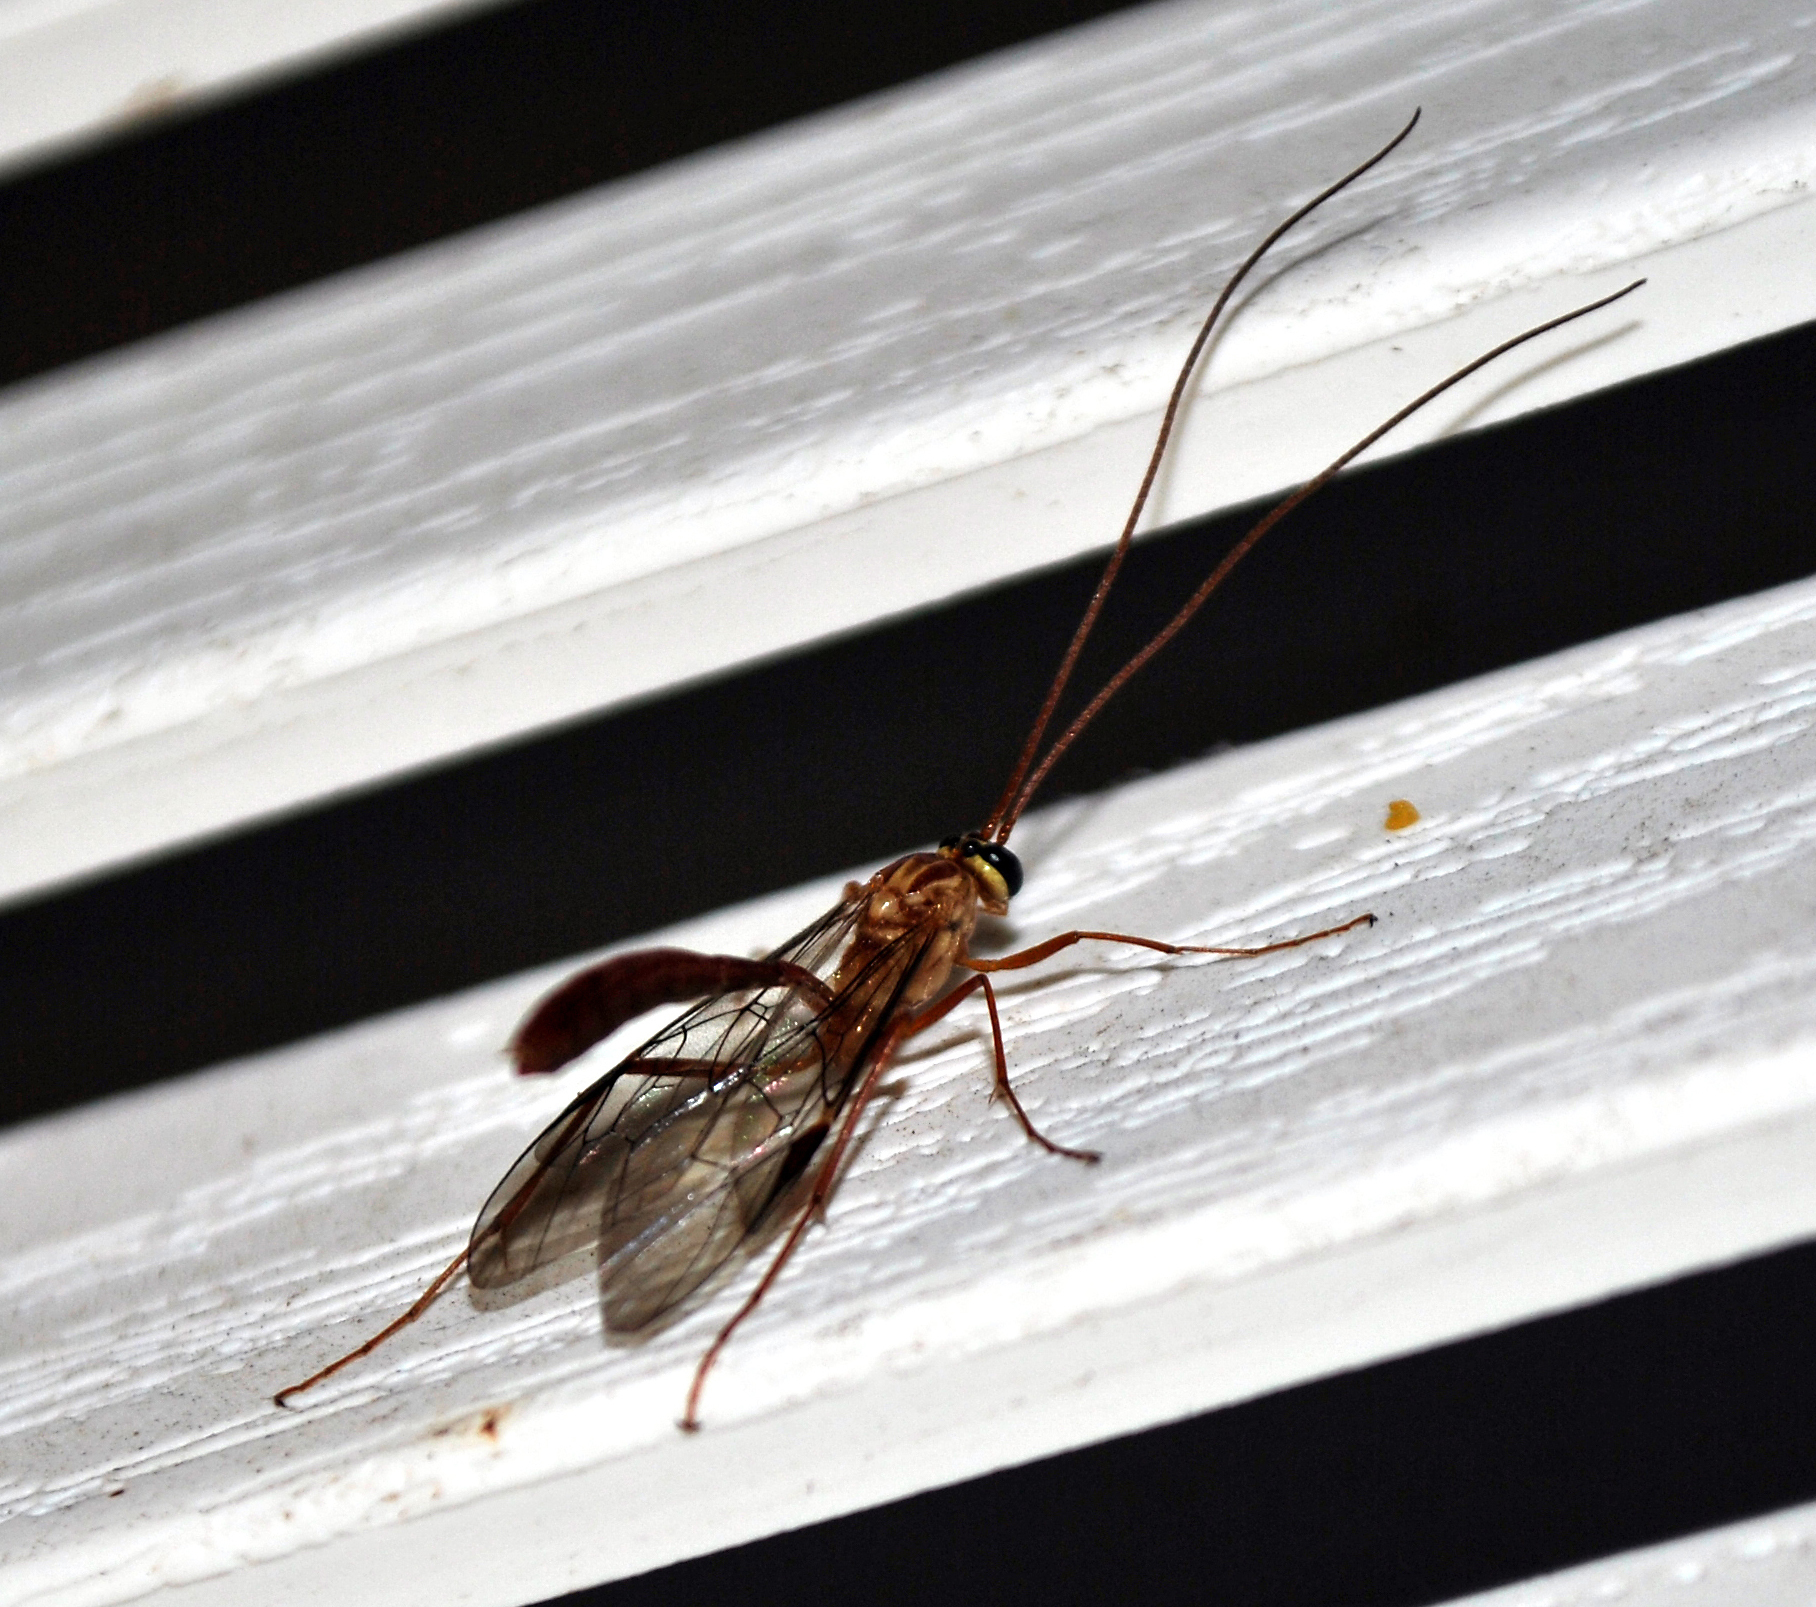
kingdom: Animalia
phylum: Arthropoda
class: Insecta
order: Hymenoptera
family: Ichneumonidae
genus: Ophion
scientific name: Ophion
